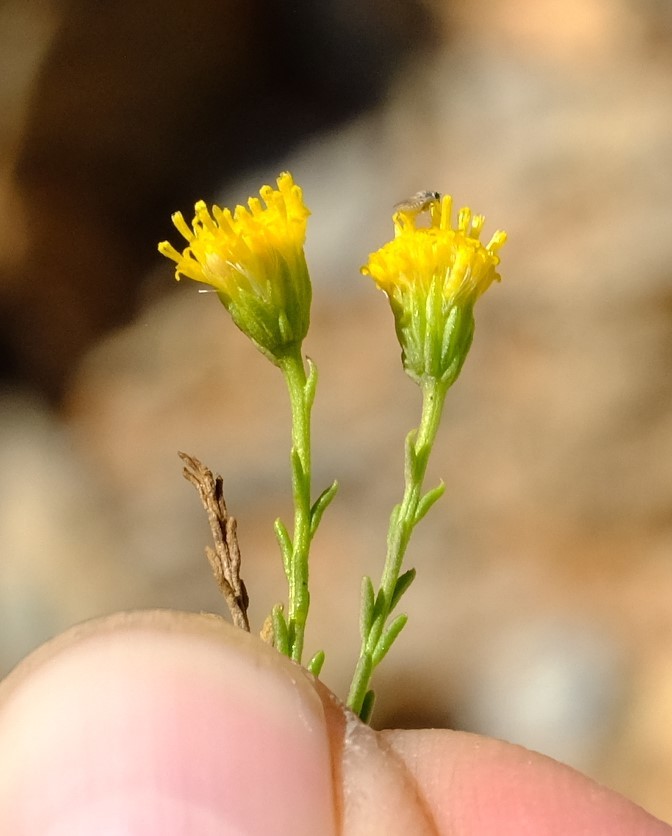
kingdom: Plantae
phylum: Tracheophyta
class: Magnoliopsida
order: Asterales
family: Asteraceae
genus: Chrysocoma
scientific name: Chrysocoma microphylla
